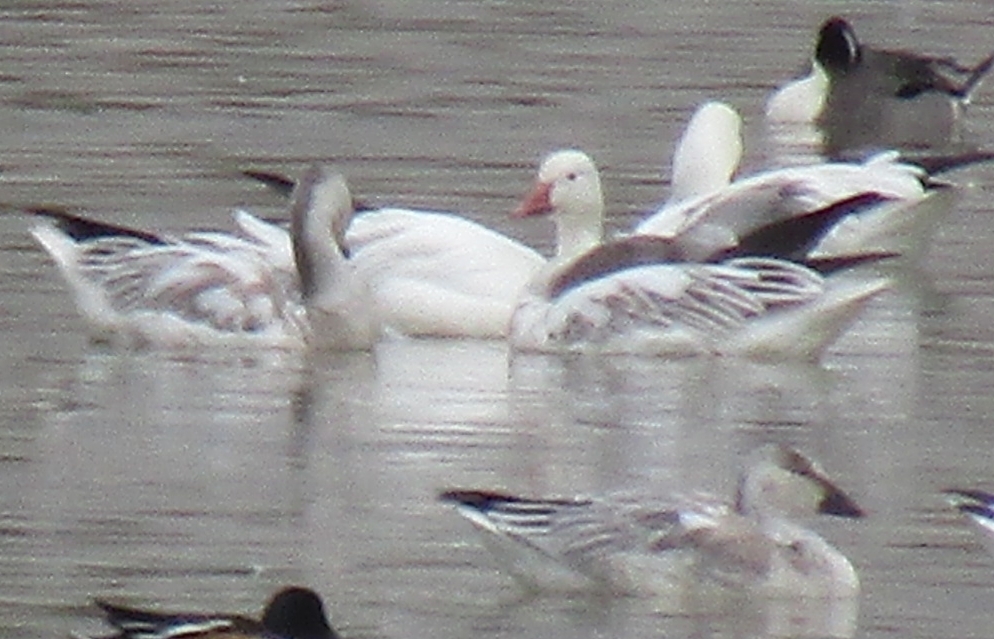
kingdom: Animalia
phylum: Chordata
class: Aves
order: Anseriformes
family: Anatidae
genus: Anser
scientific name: Anser caerulescens
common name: Snow goose
